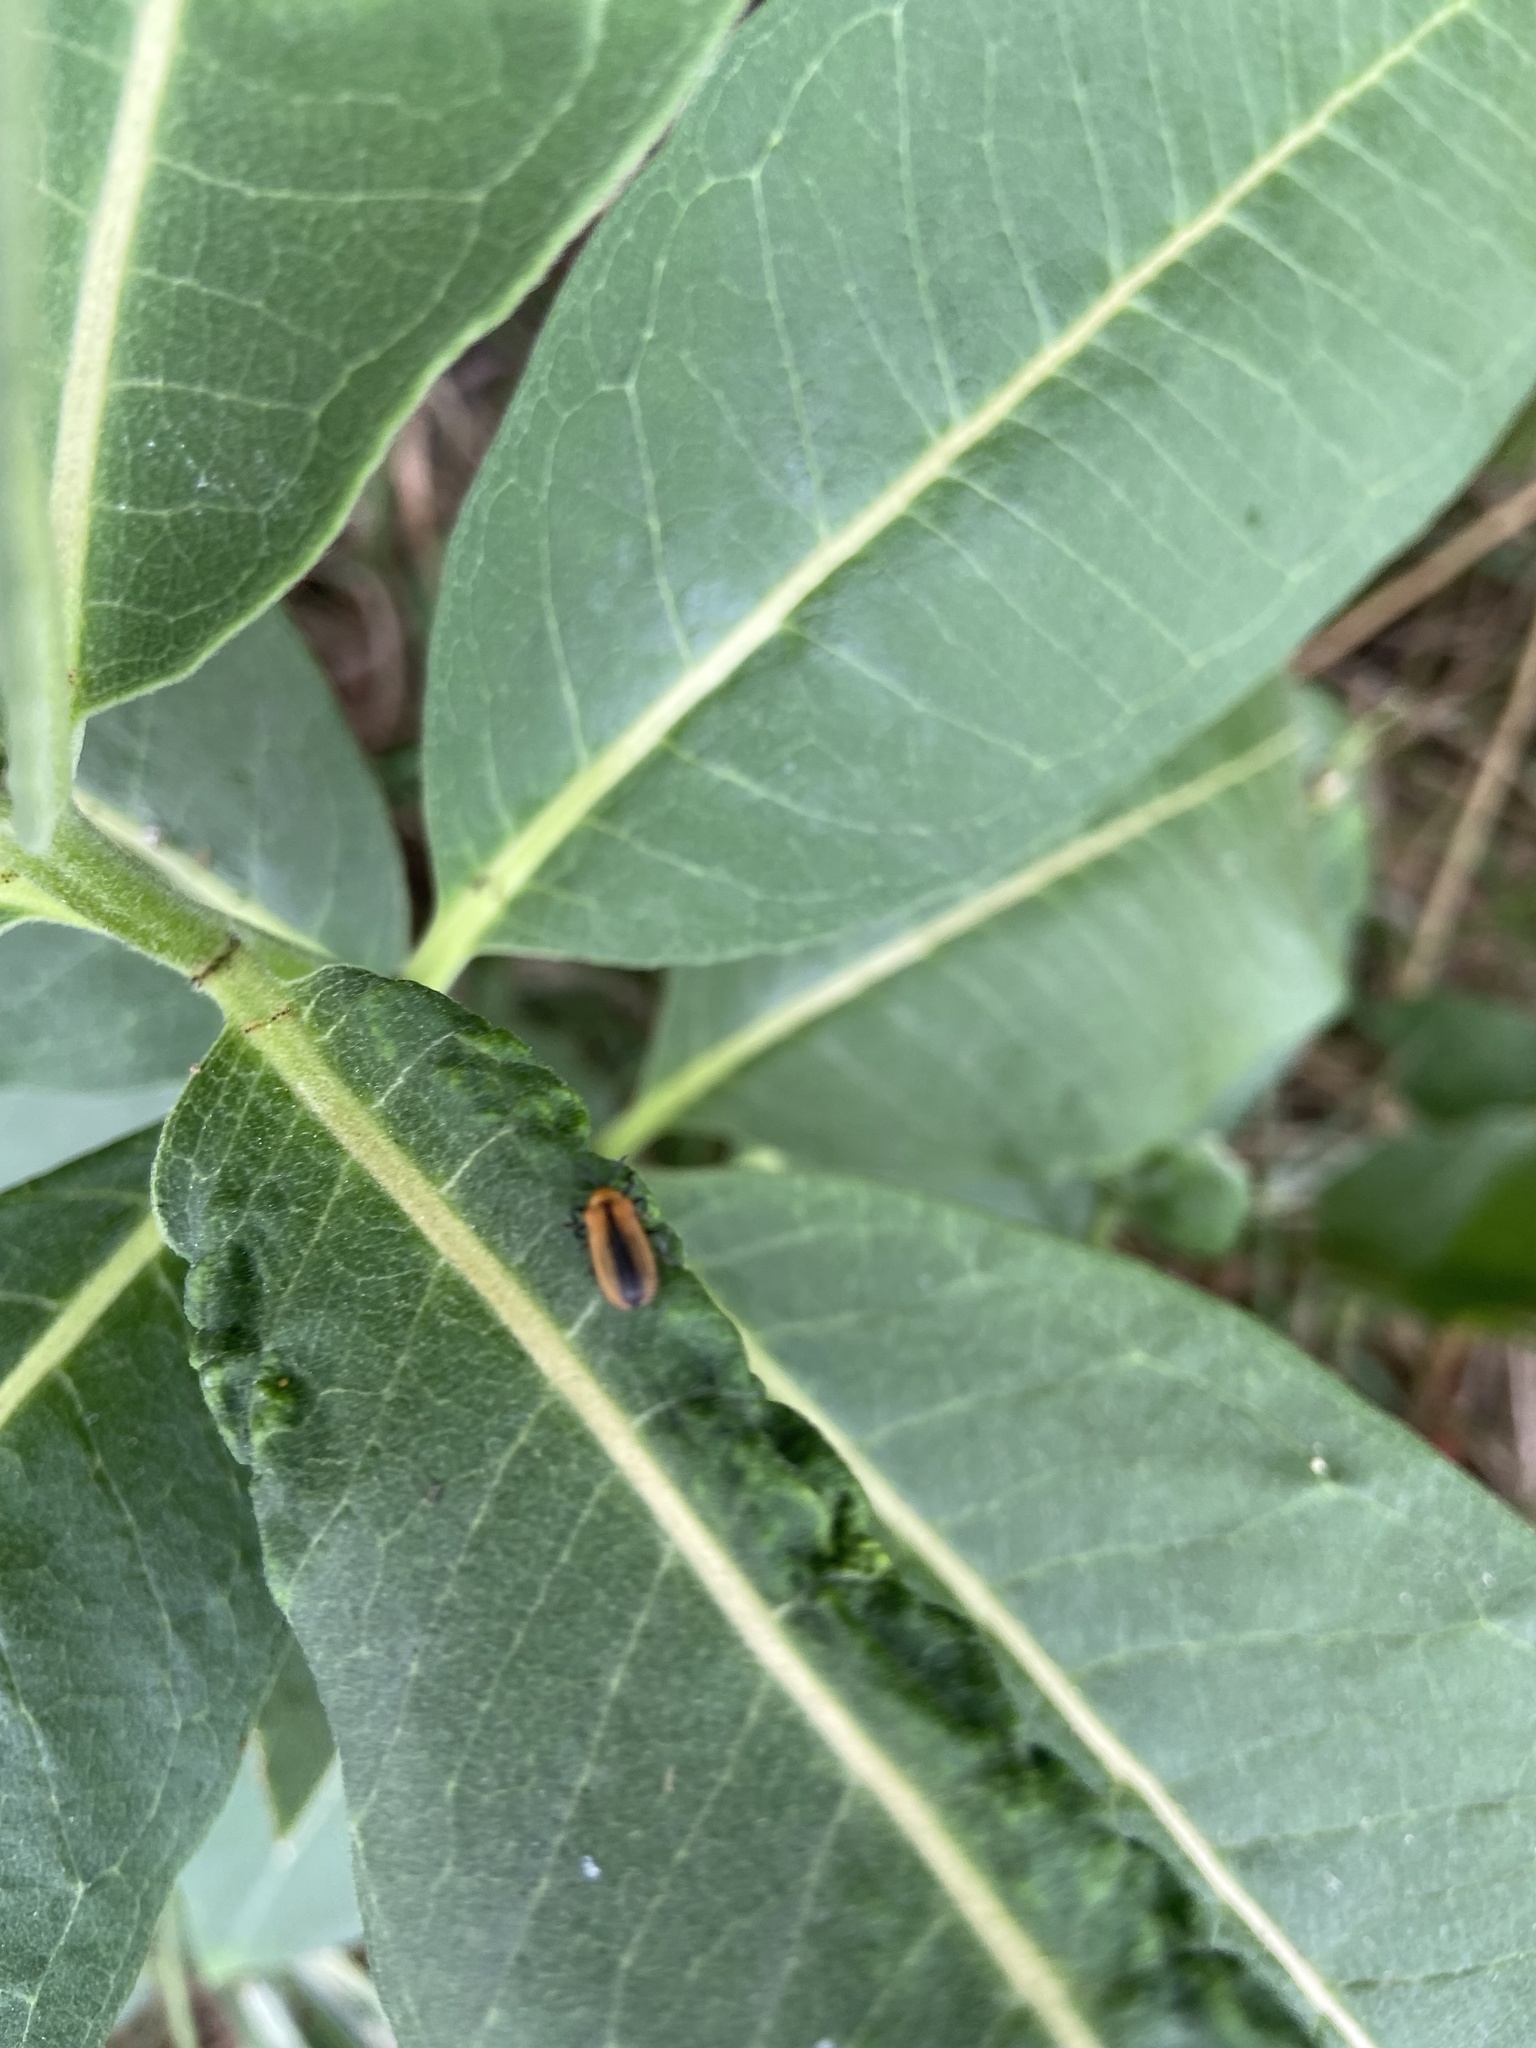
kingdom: Animalia
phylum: Arthropoda
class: Insecta
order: Coleoptera
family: Chrysomelidae
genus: Odontota
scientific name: Odontota dorsalis
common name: Locust leaf-miner beetle
